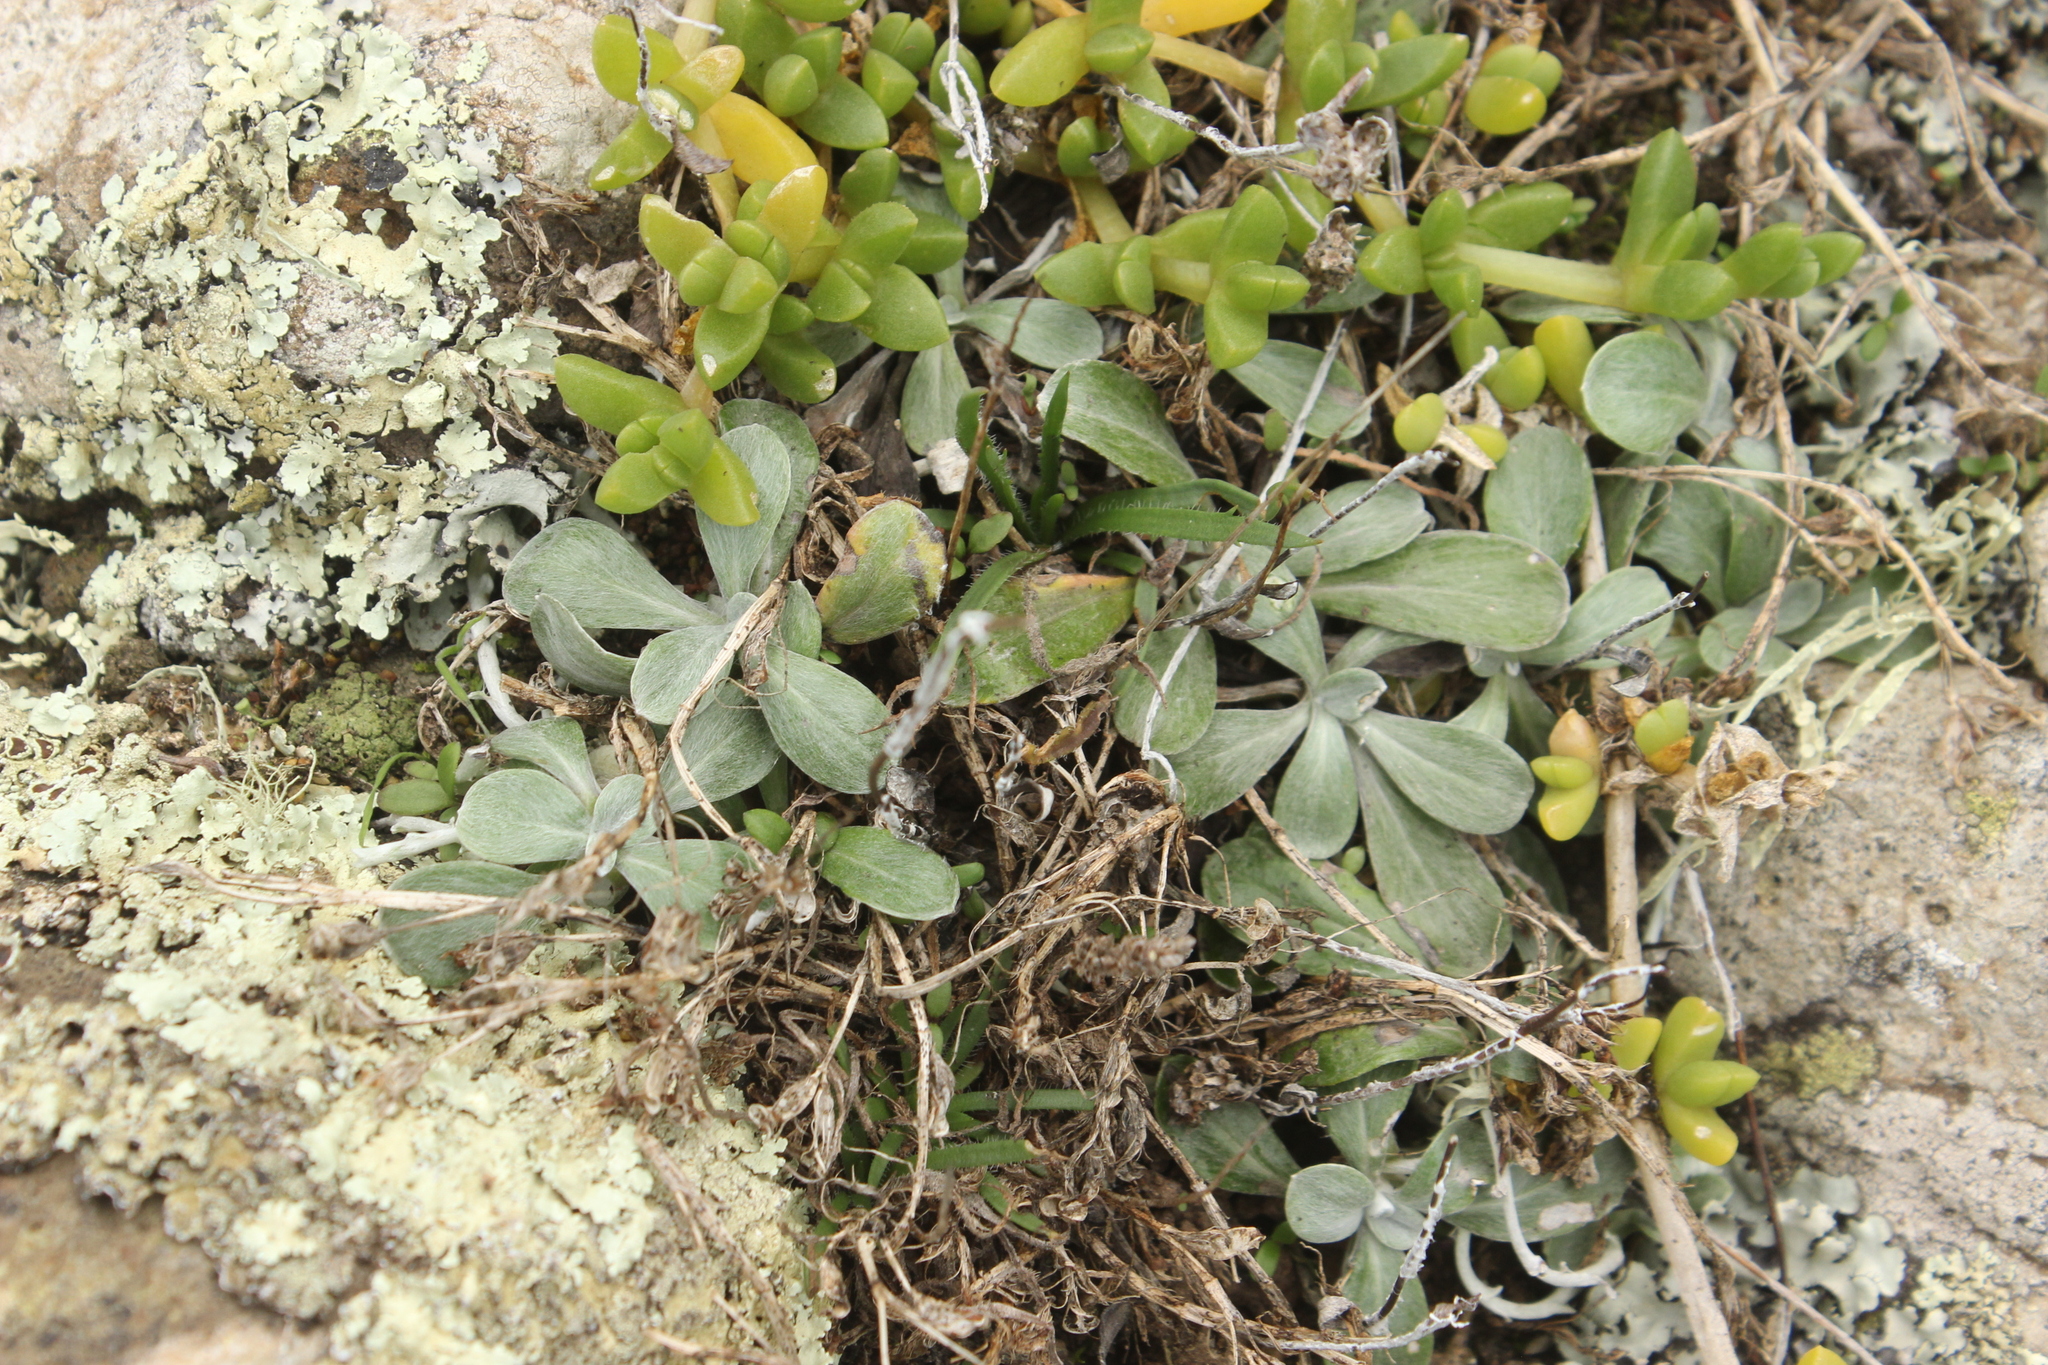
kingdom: Plantae
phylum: Tracheophyta
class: Magnoliopsida
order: Asterales
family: Asteraceae
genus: Euchiton
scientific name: Euchiton audax
